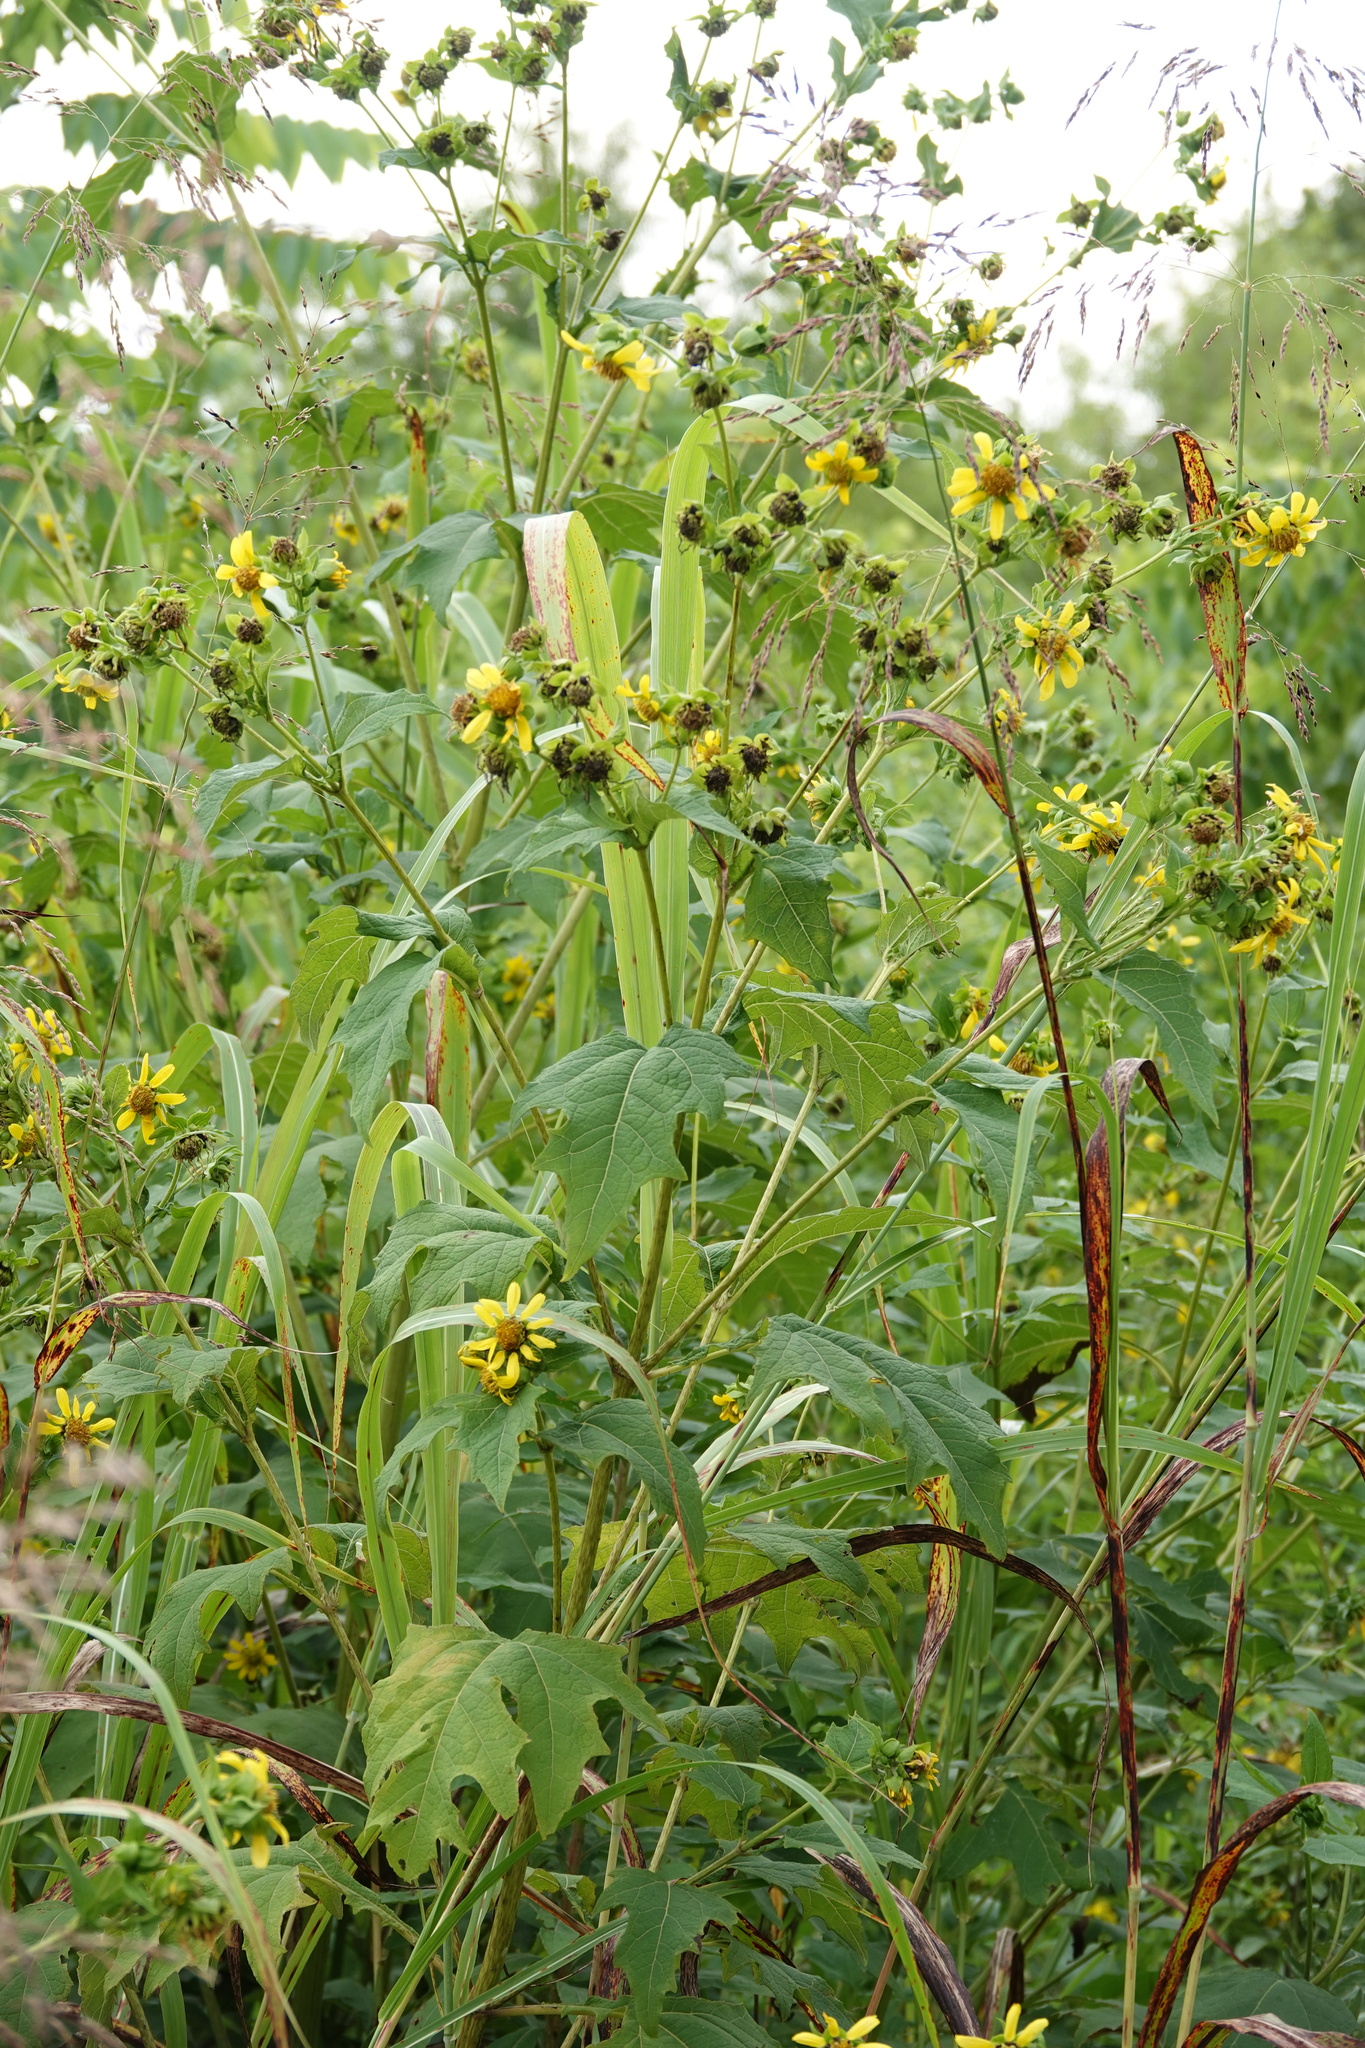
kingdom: Plantae
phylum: Tracheophyta
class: Magnoliopsida
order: Asterales
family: Asteraceae
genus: Smallanthus
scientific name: Smallanthus uvedalia
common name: Bear's-foot
